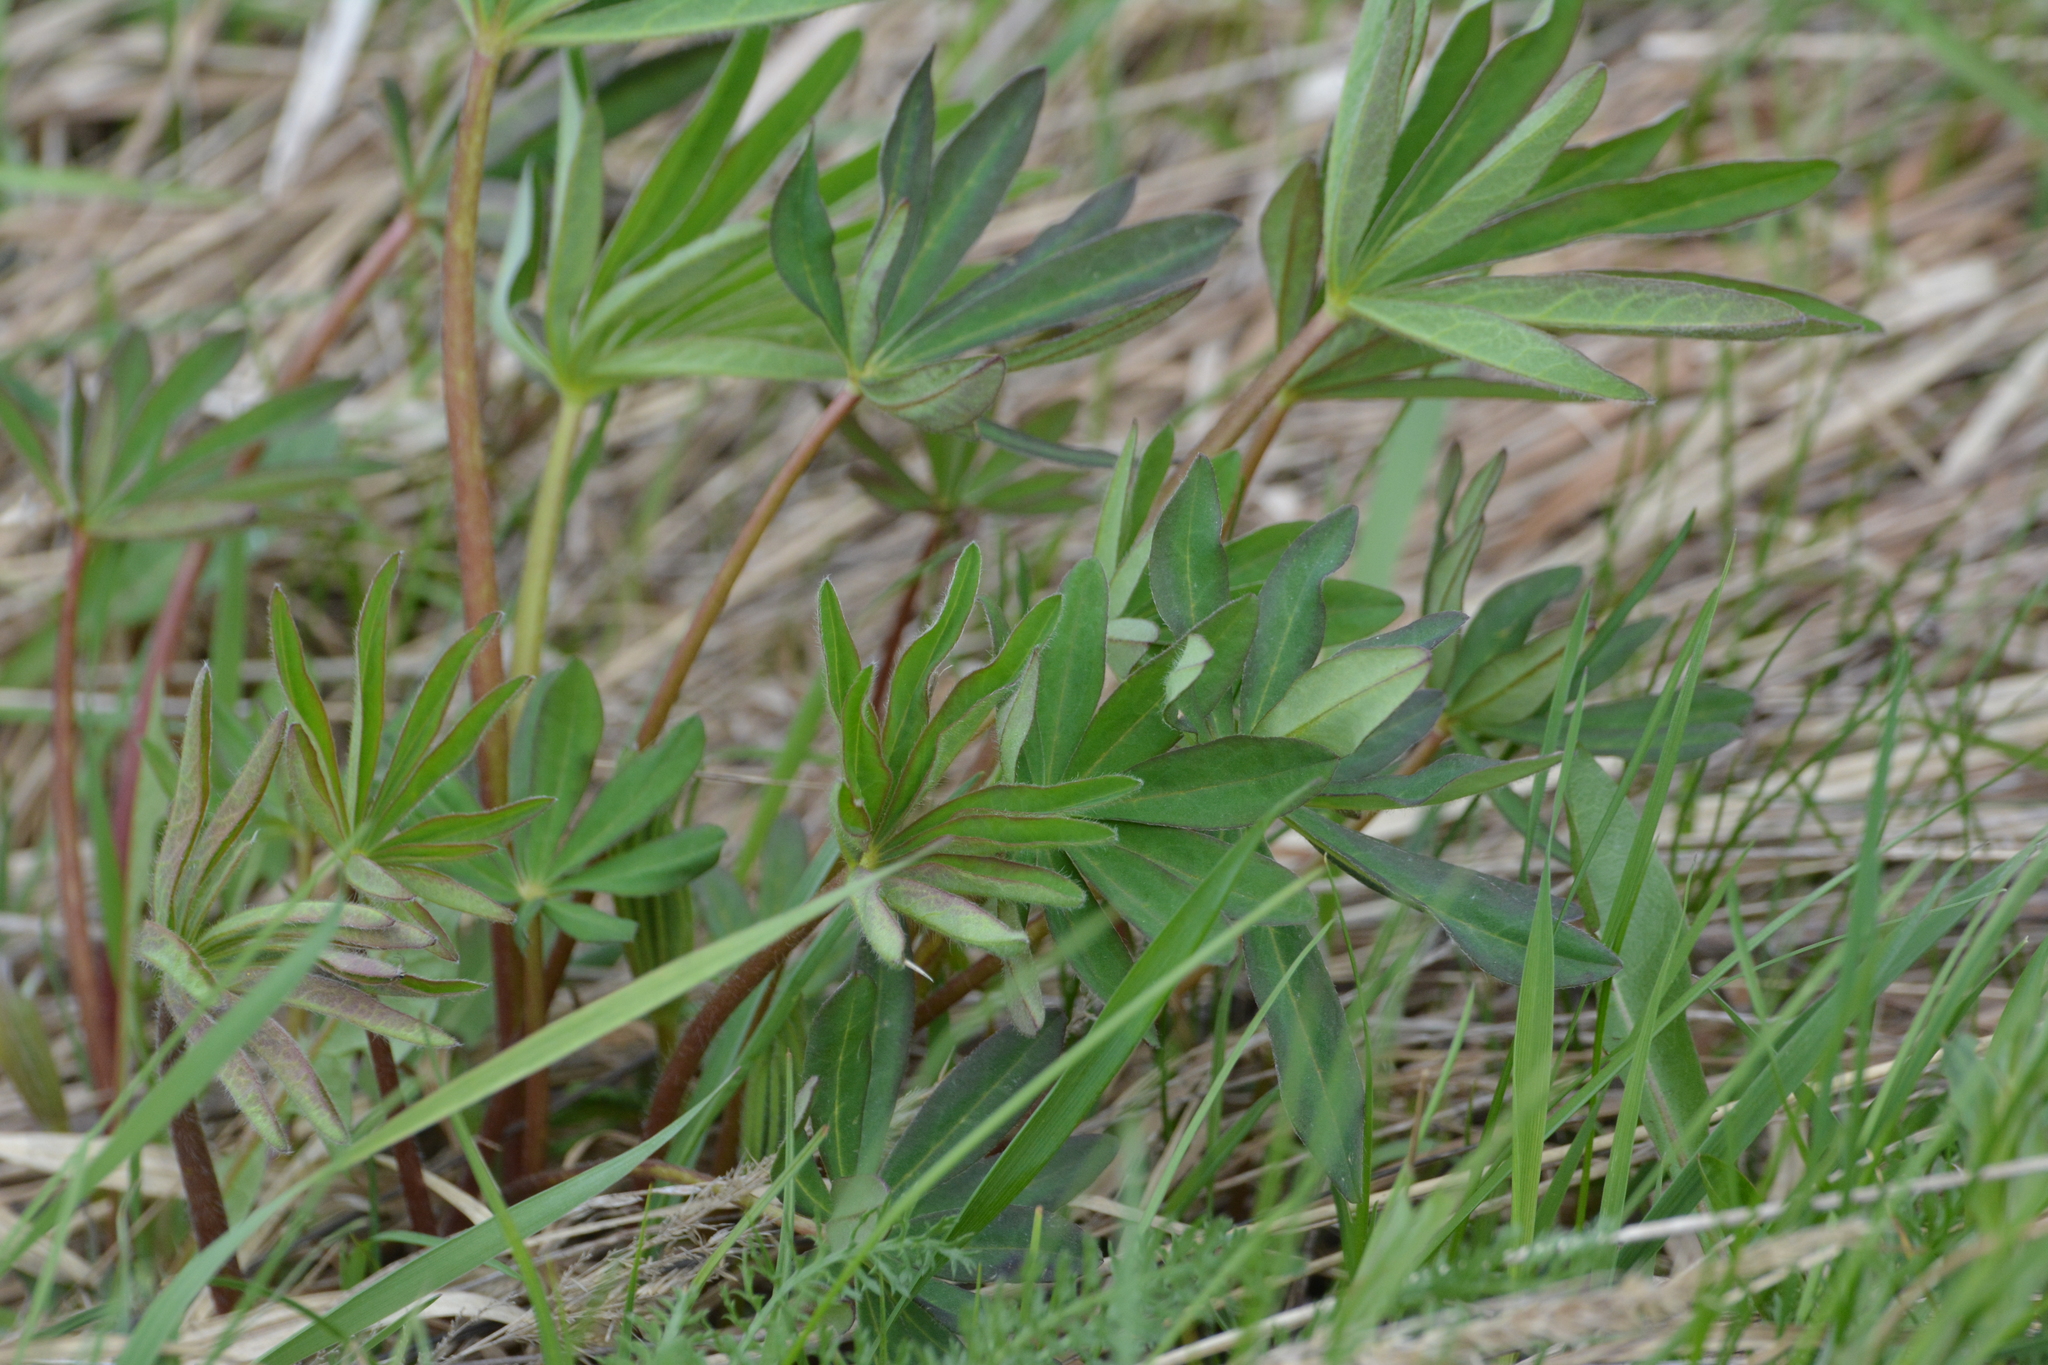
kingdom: Plantae
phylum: Tracheophyta
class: Magnoliopsida
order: Fabales
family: Fabaceae
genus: Lupinus
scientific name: Lupinus polyphyllus
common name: Garden lupin
